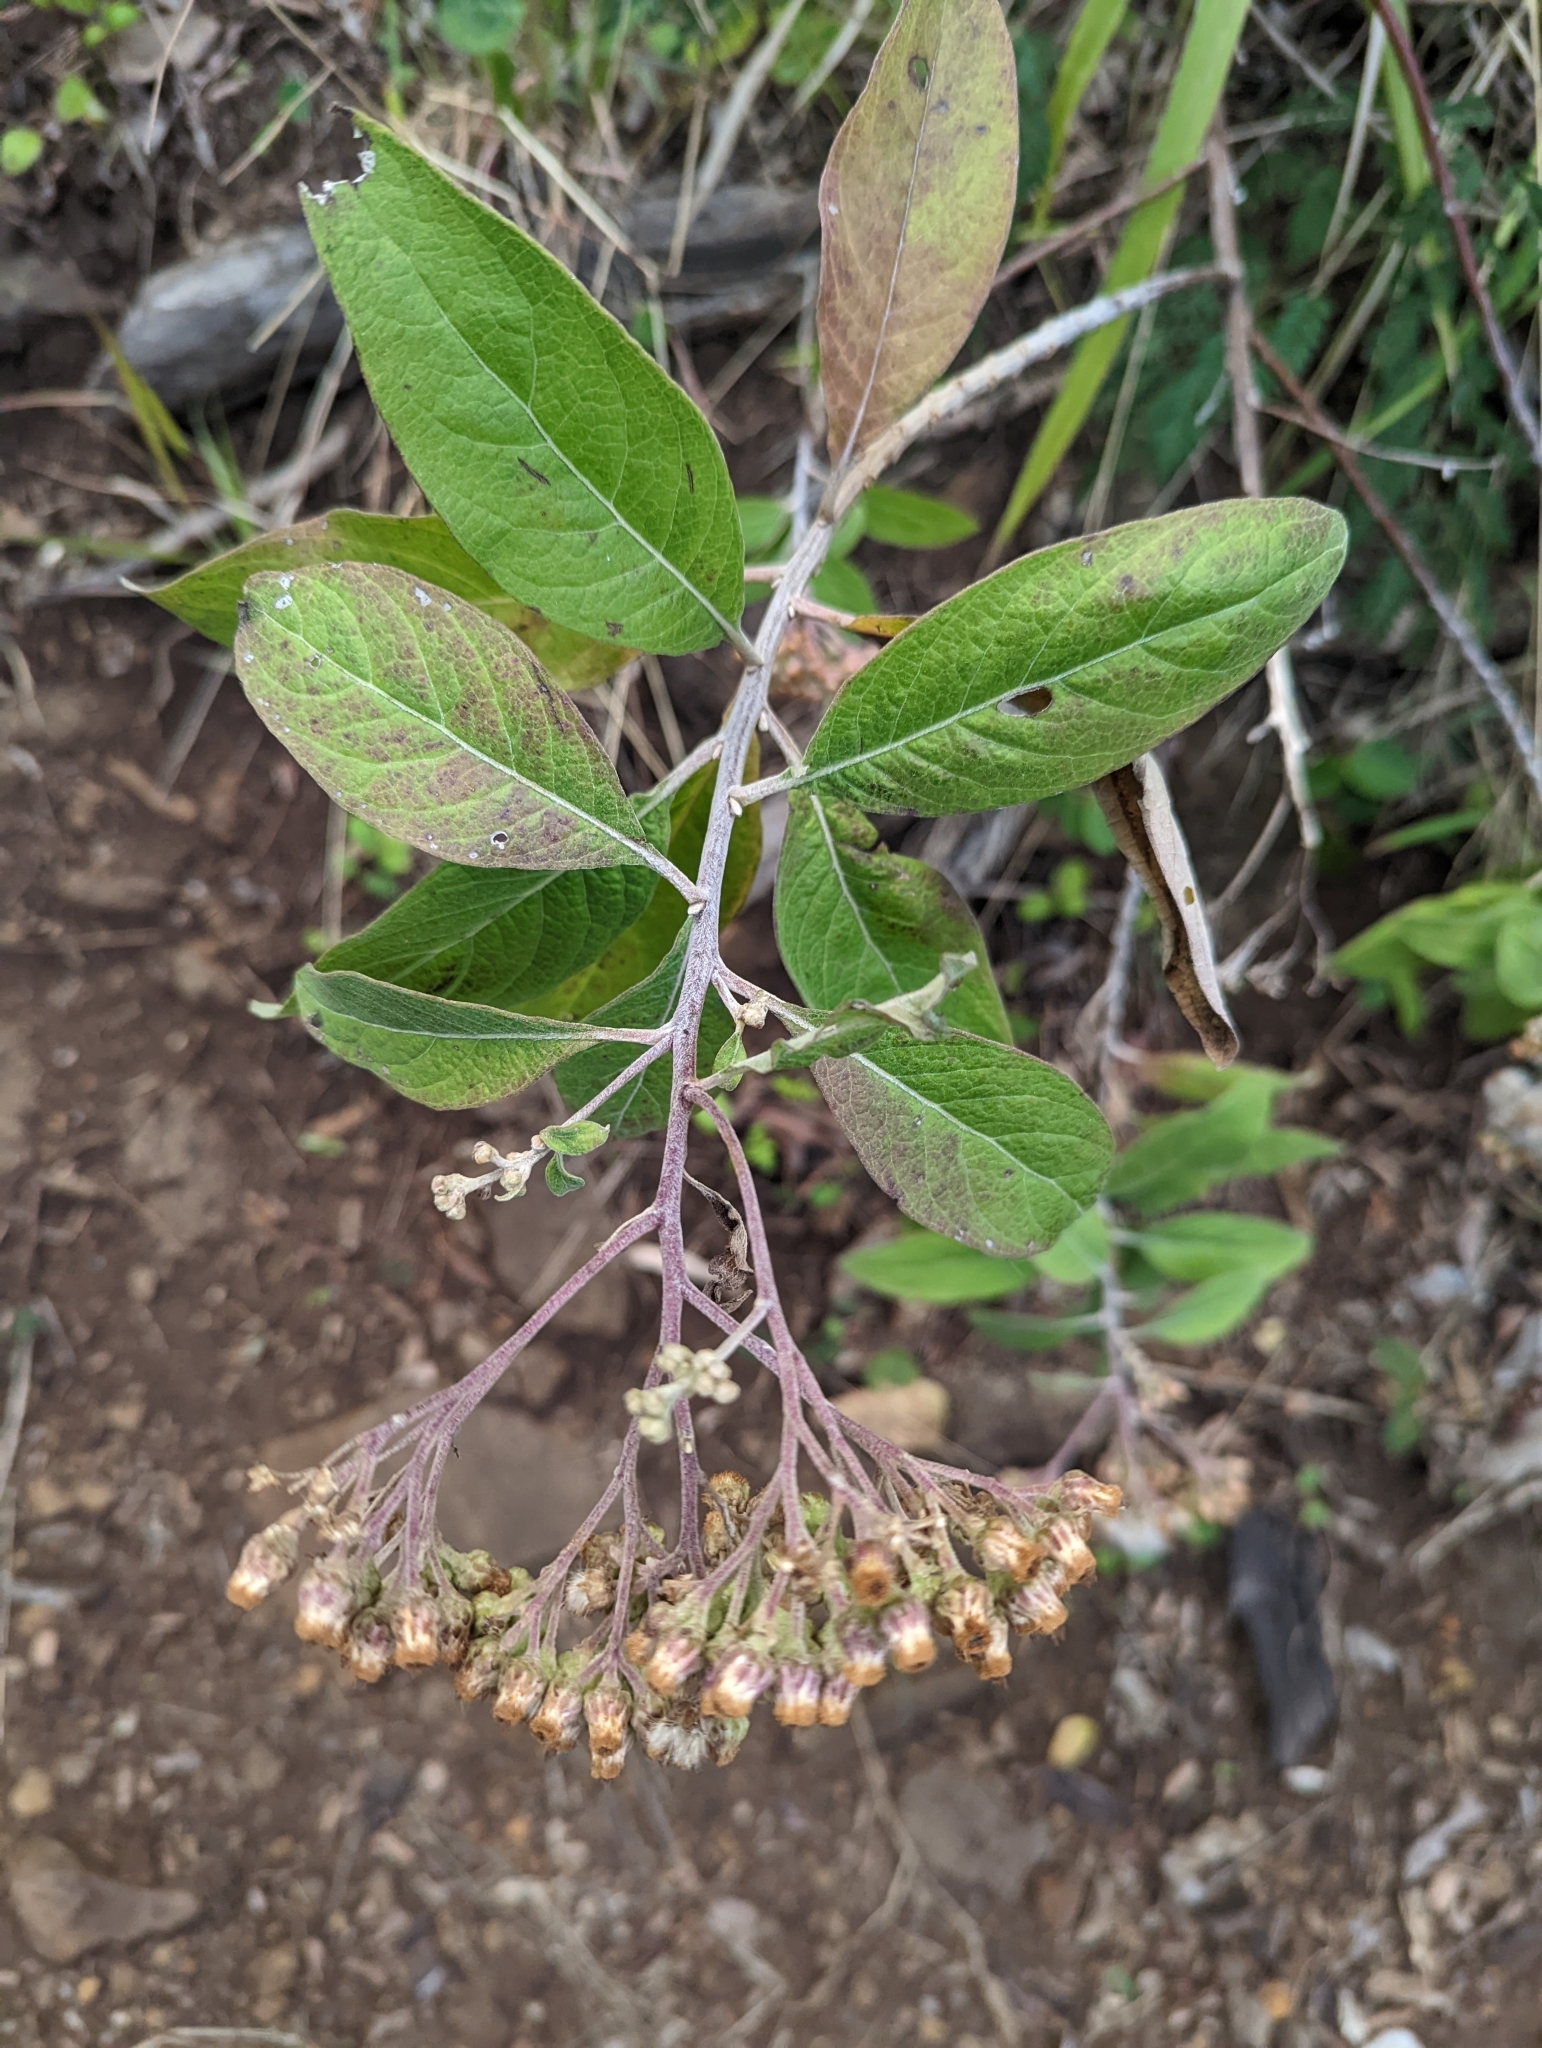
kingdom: Plantae
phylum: Tracheophyta
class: Magnoliopsida
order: Asterales
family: Asteraceae
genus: Pluchea
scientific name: Pluchea carolinensis
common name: Marsh fleabane
